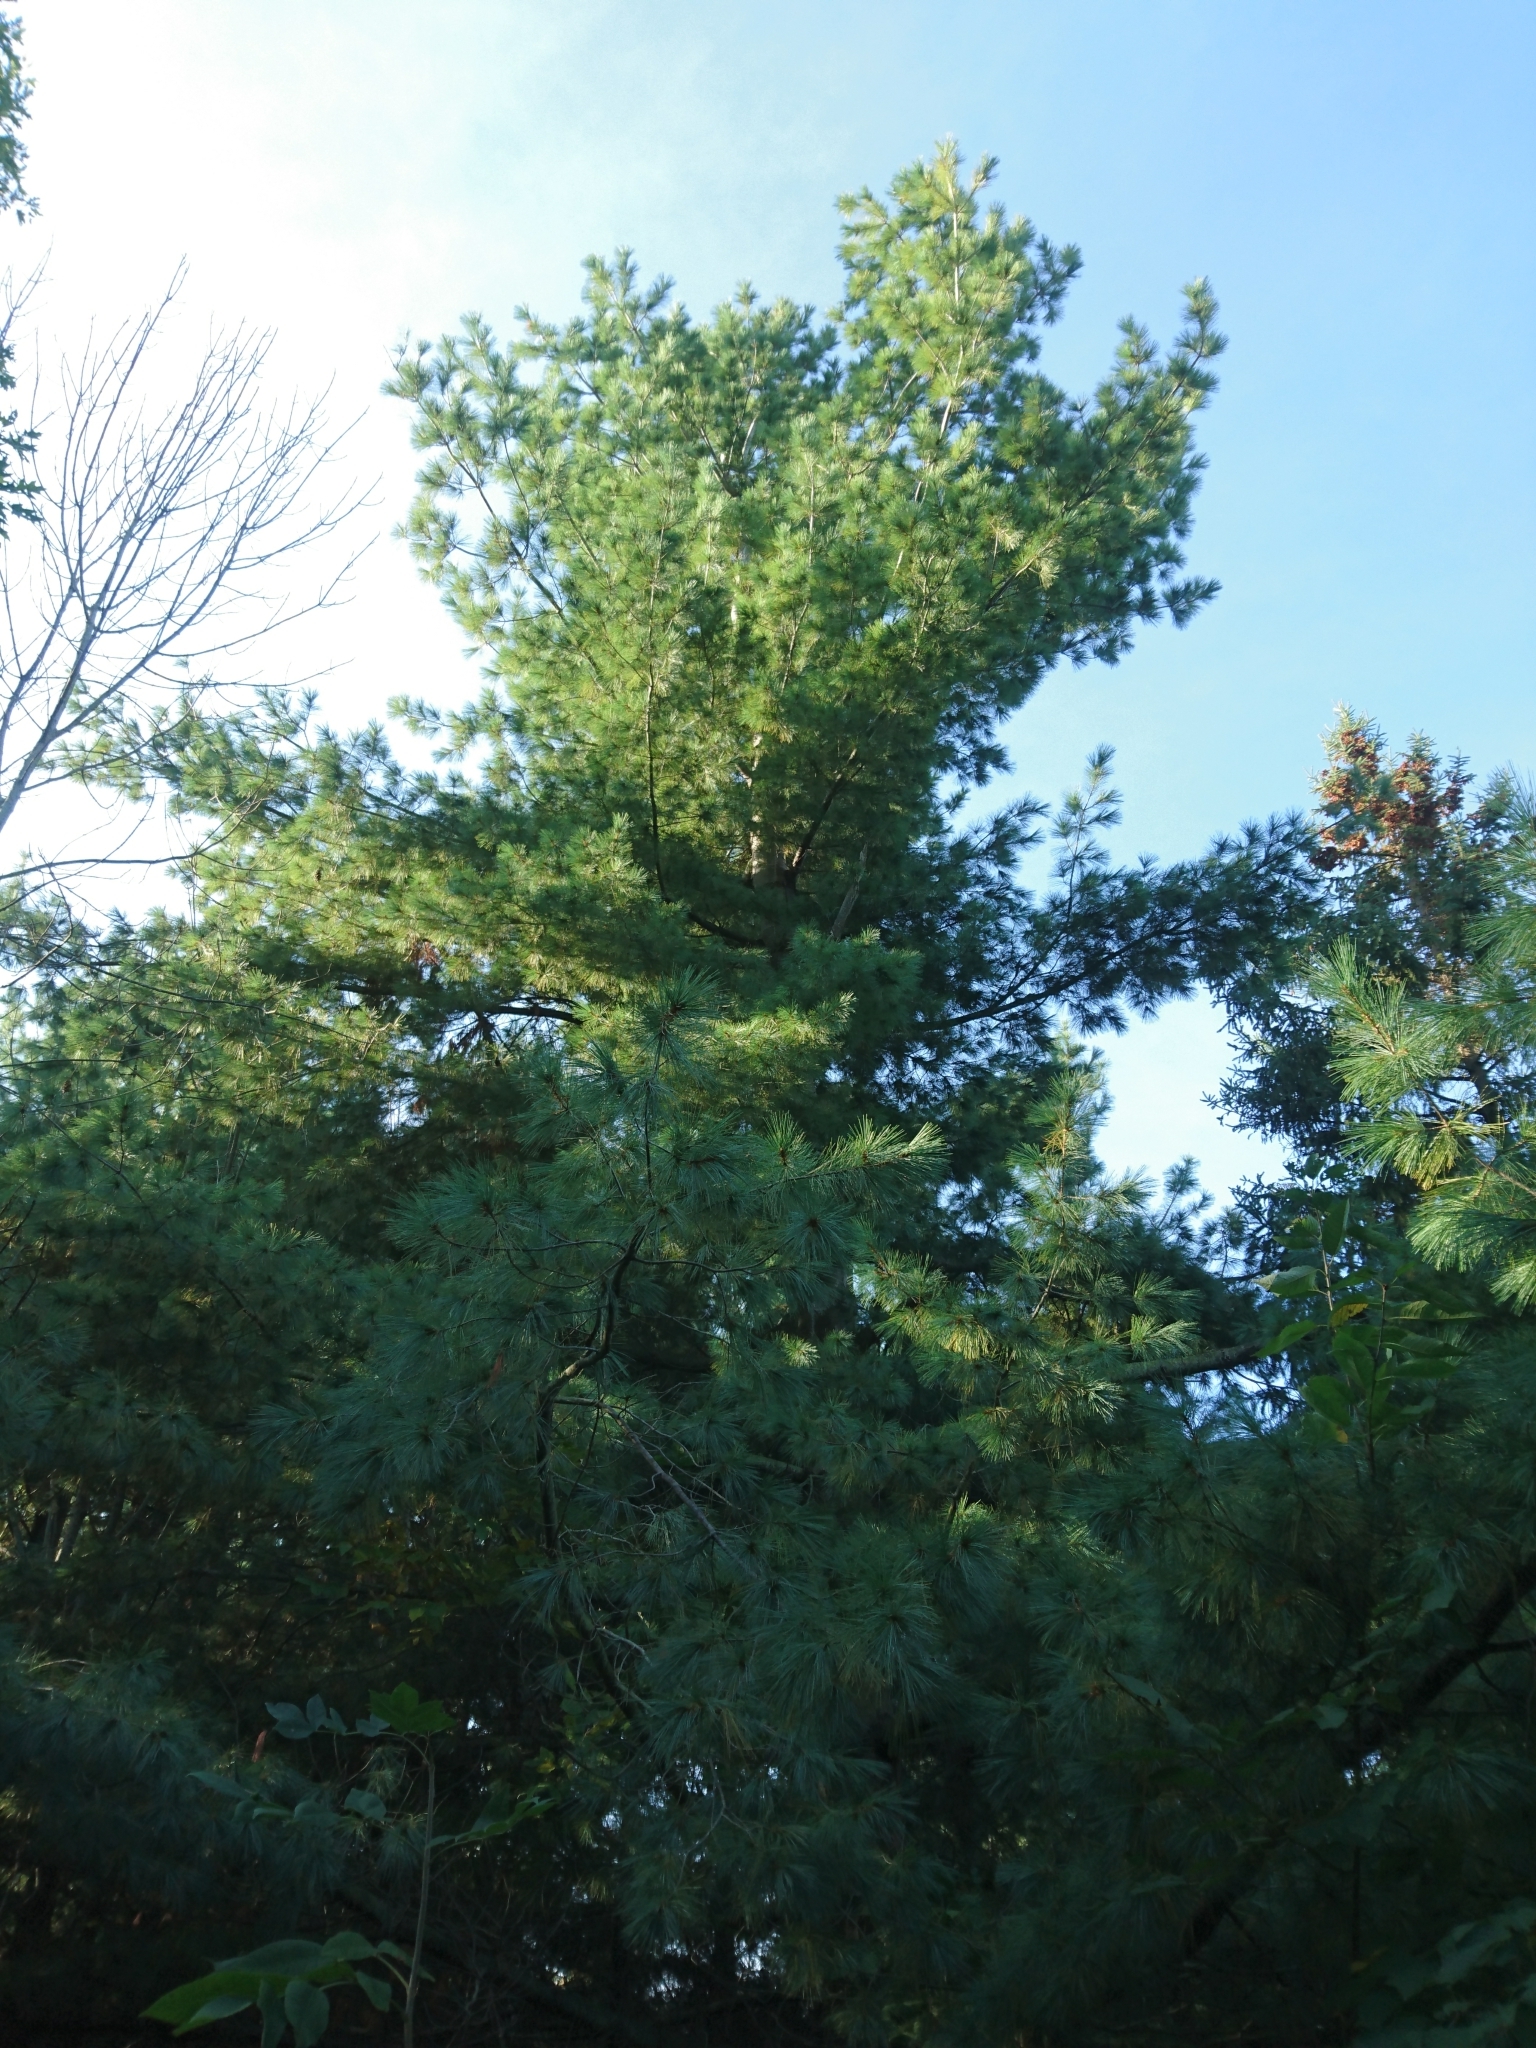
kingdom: Plantae
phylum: Tracheophyta
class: Pinopsida
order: Pinales
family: Pinaceae
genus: Pinus
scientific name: Pinus strobus
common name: Weymouth pine
